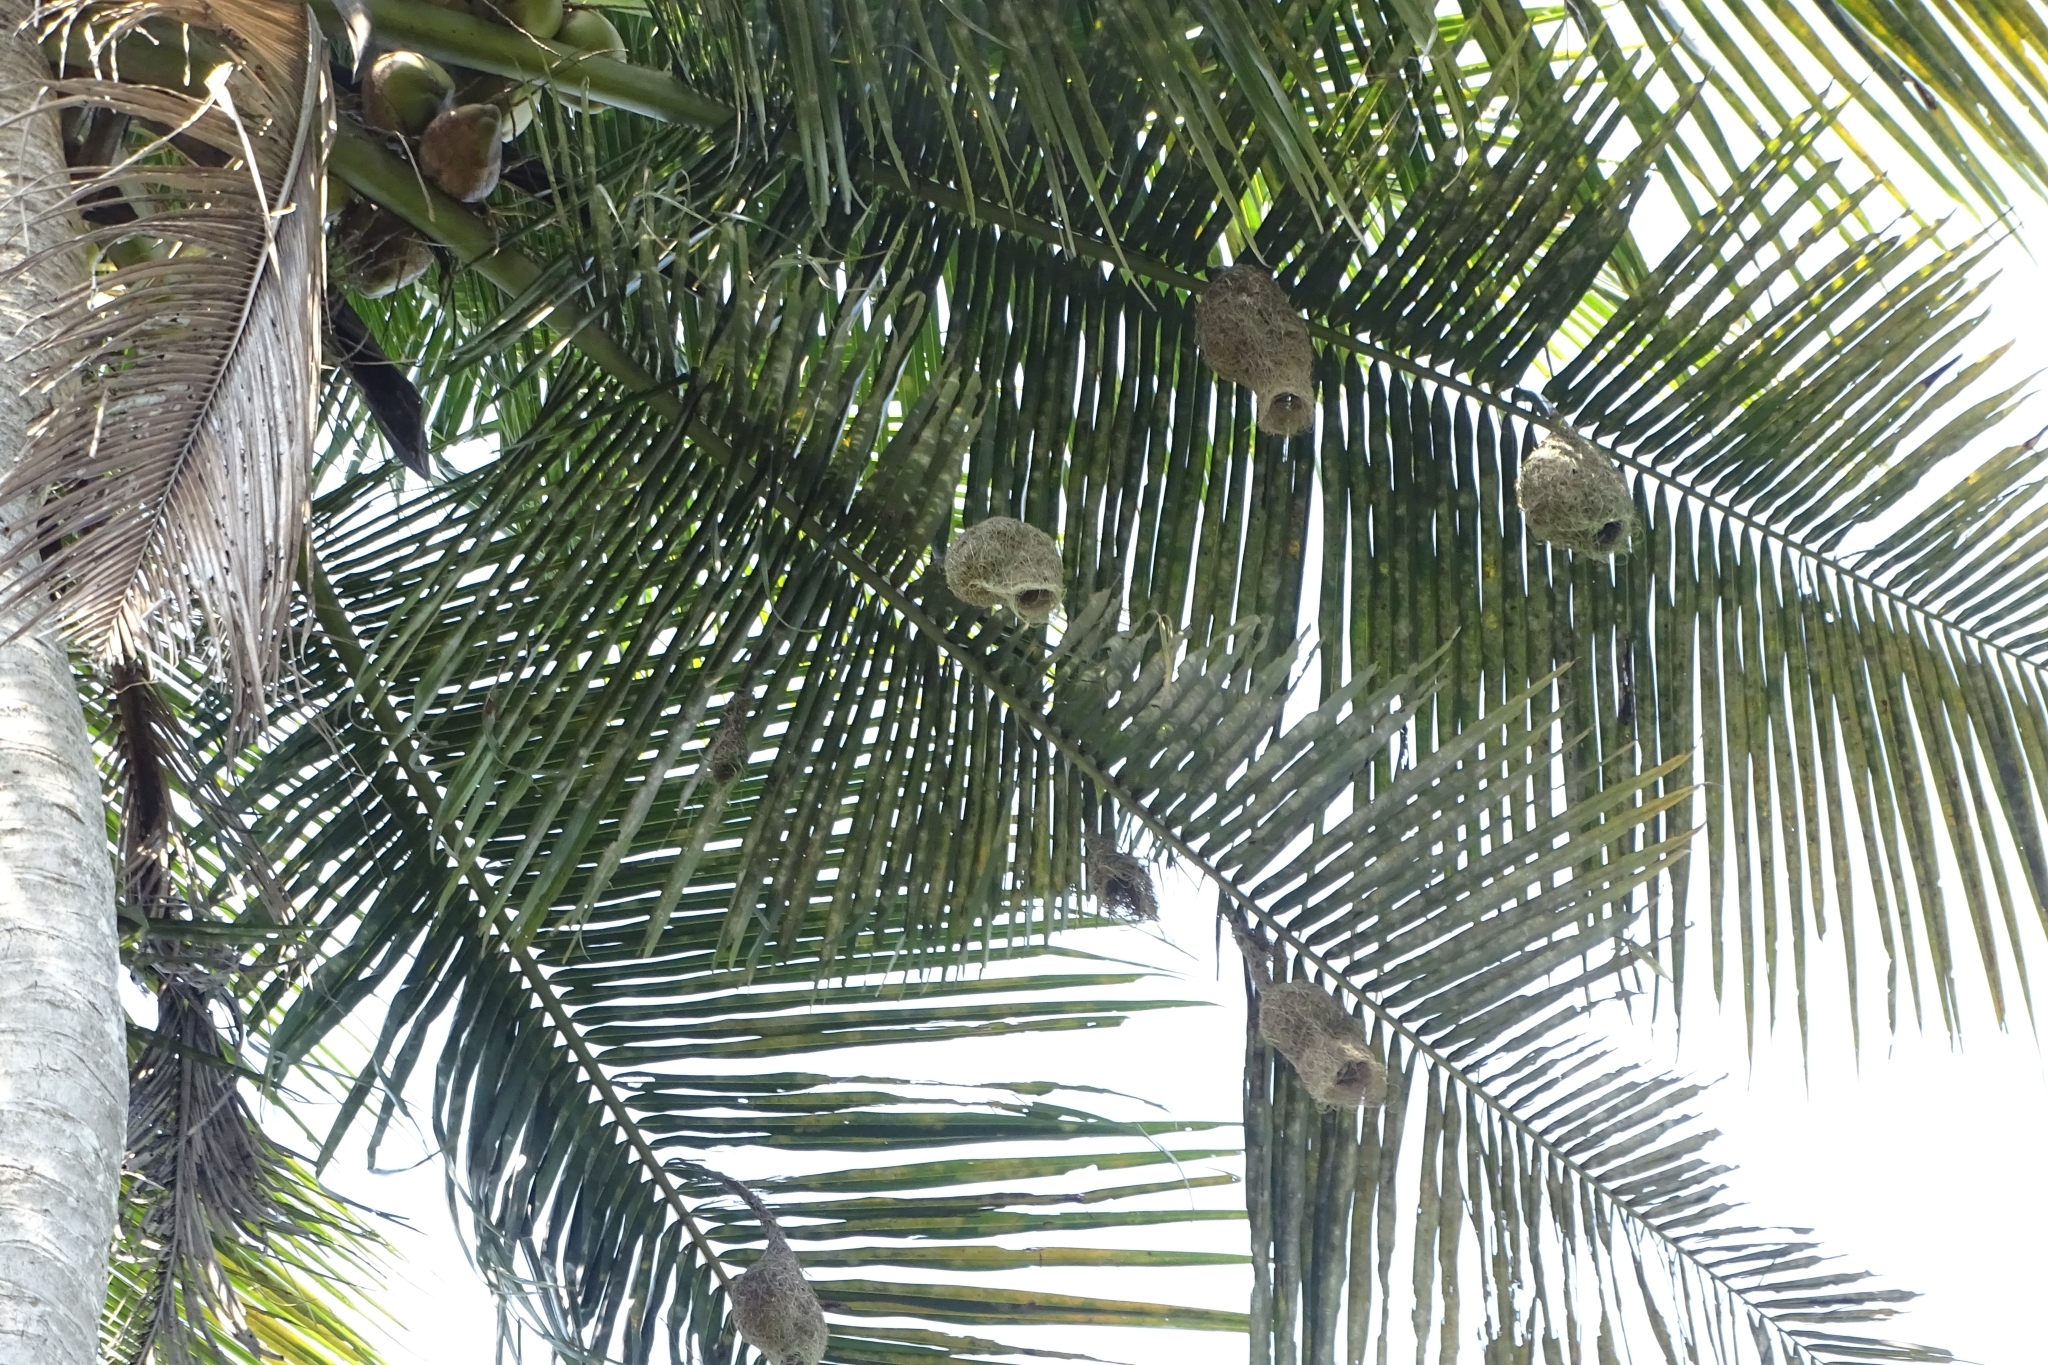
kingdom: Animalia
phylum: Chordata
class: Aves
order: Passeriformes
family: Ploceidae
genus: Ploceus
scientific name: Ploceus philippinus
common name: Baya weaver
